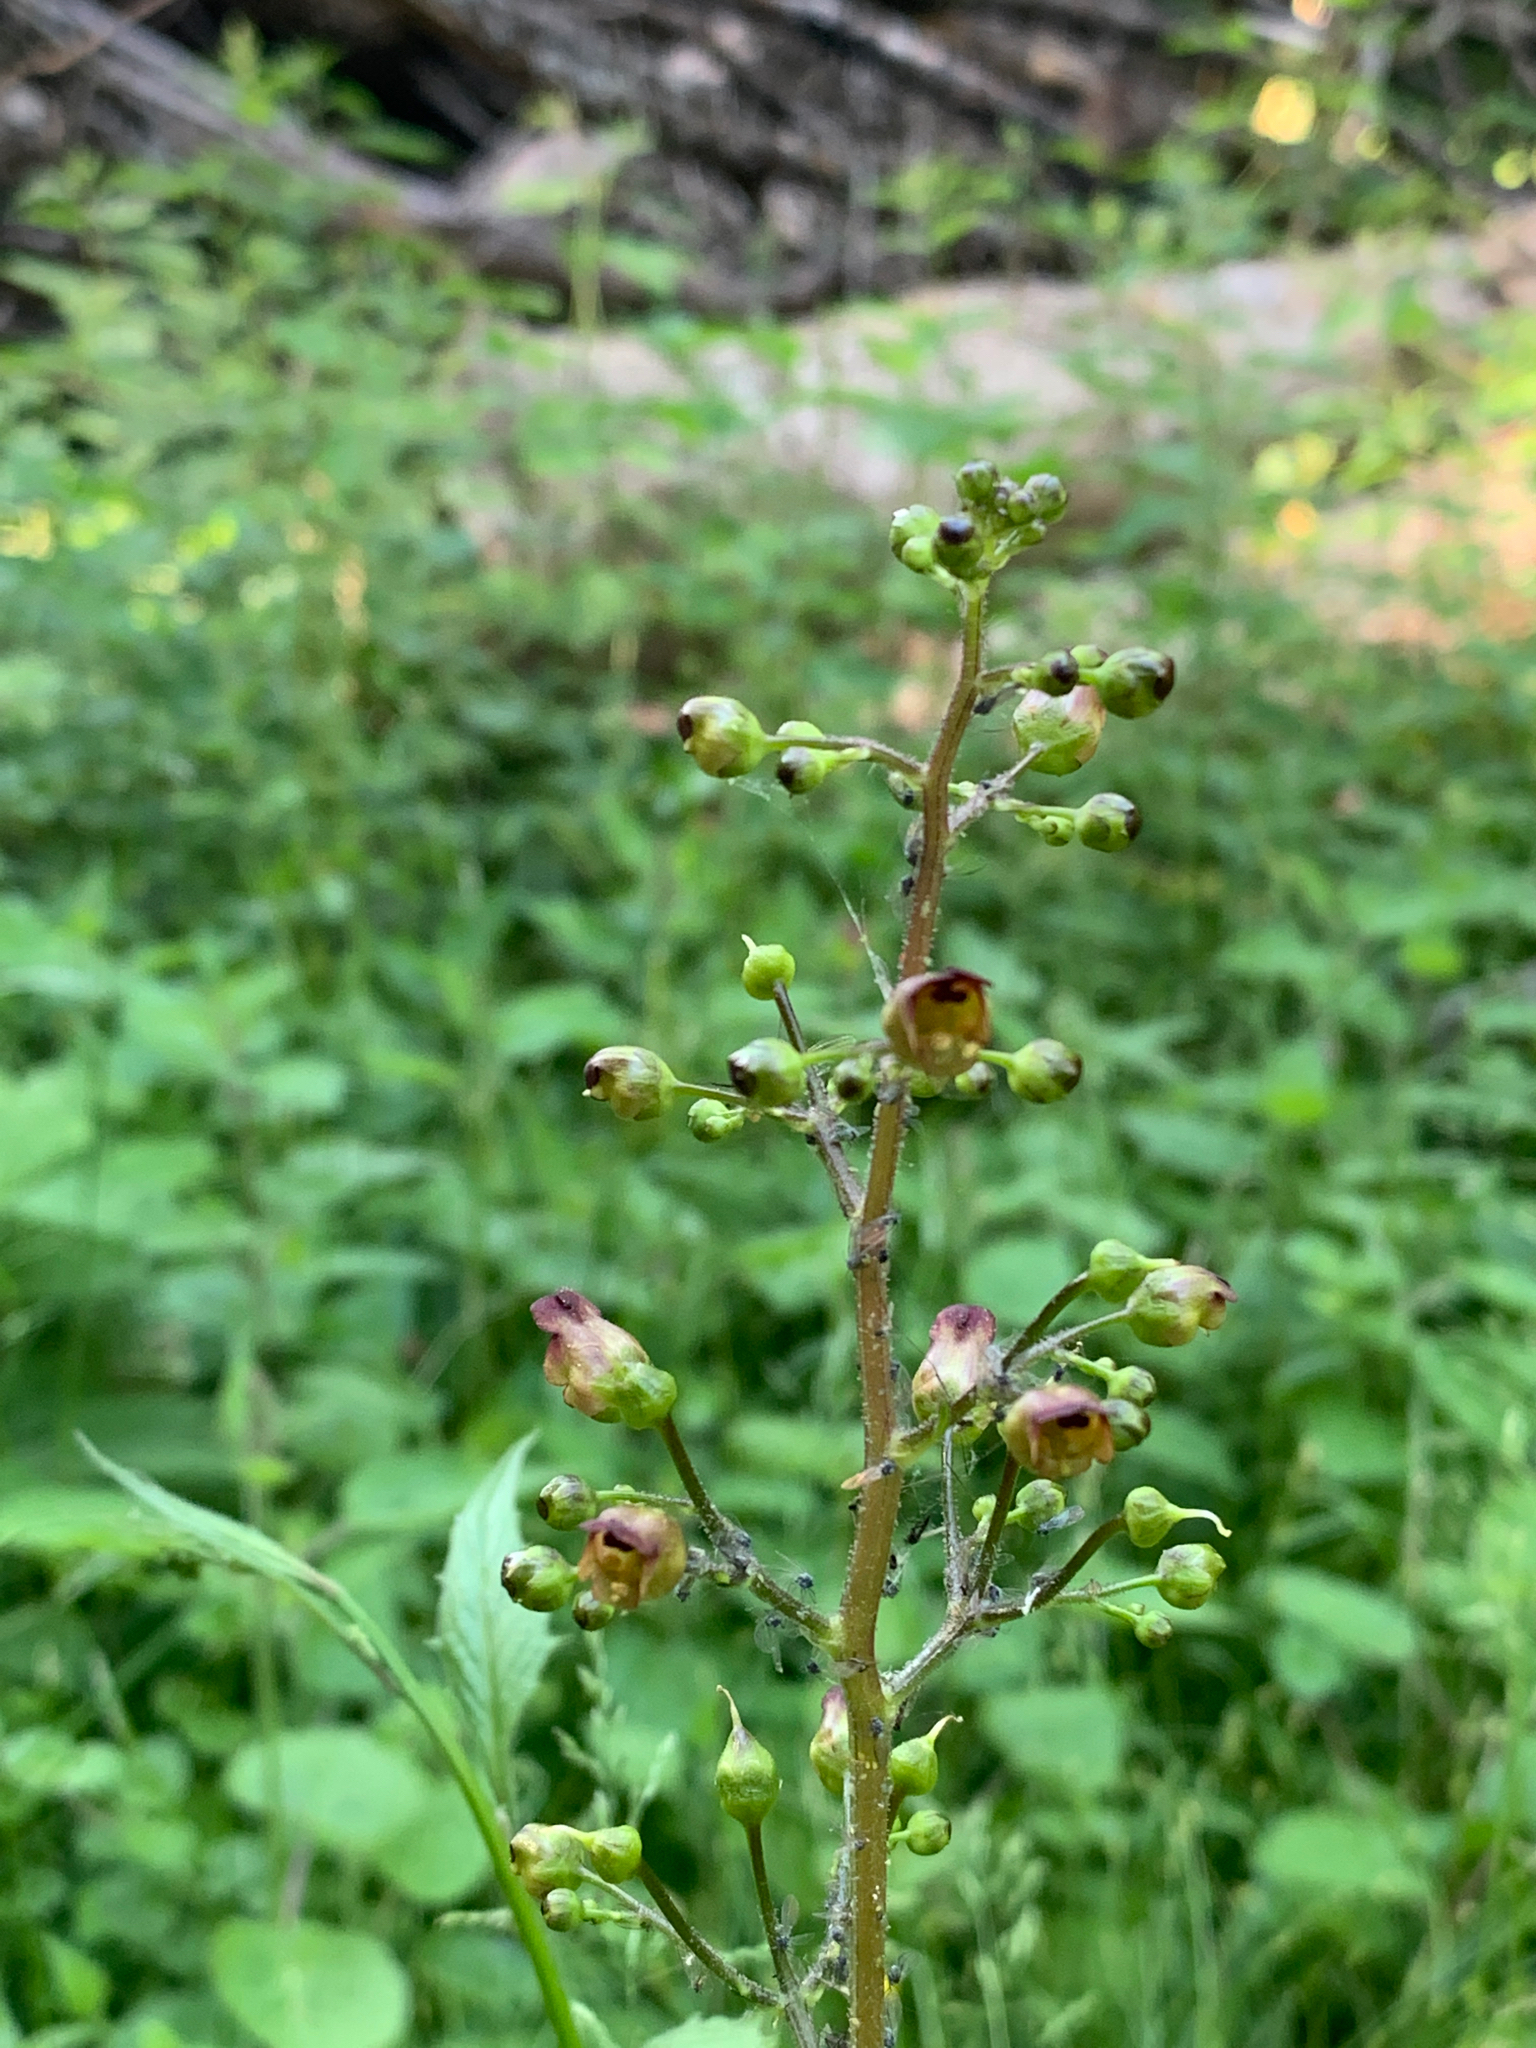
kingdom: Plantae
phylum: Tracheophyta
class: Magnoliopsida
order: Lamiales
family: Scrophulariaceae
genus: Scrophularia
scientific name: Scrophularia nodosa
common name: Common figwort
